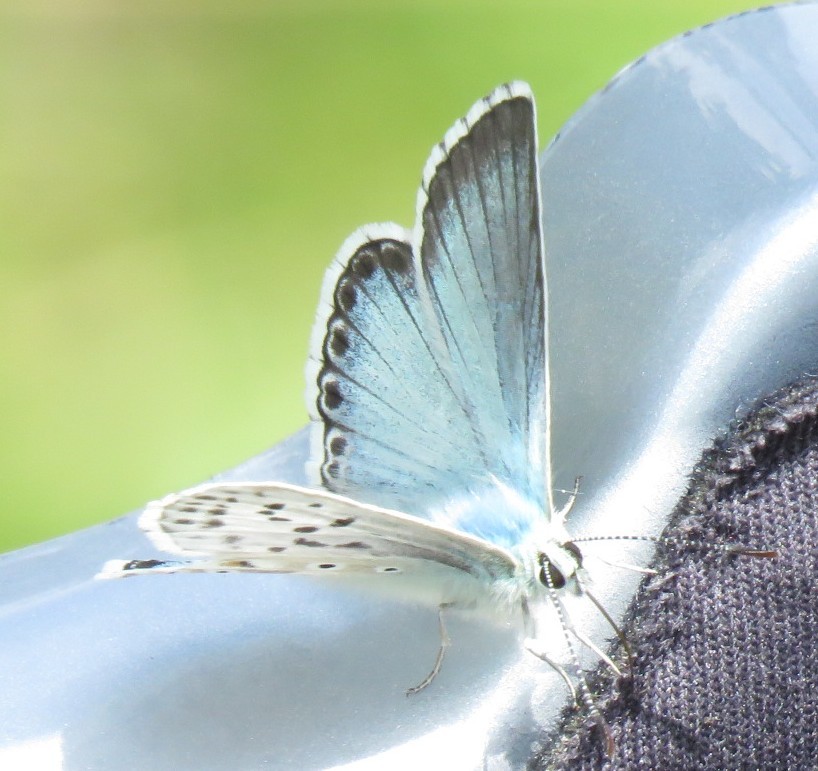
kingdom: Animalia
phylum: Arthropoda
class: Insecta
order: Lepidoptera
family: Lycaenidae
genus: Lysandra
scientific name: Lysandra coridon
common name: Chalkhill blue
